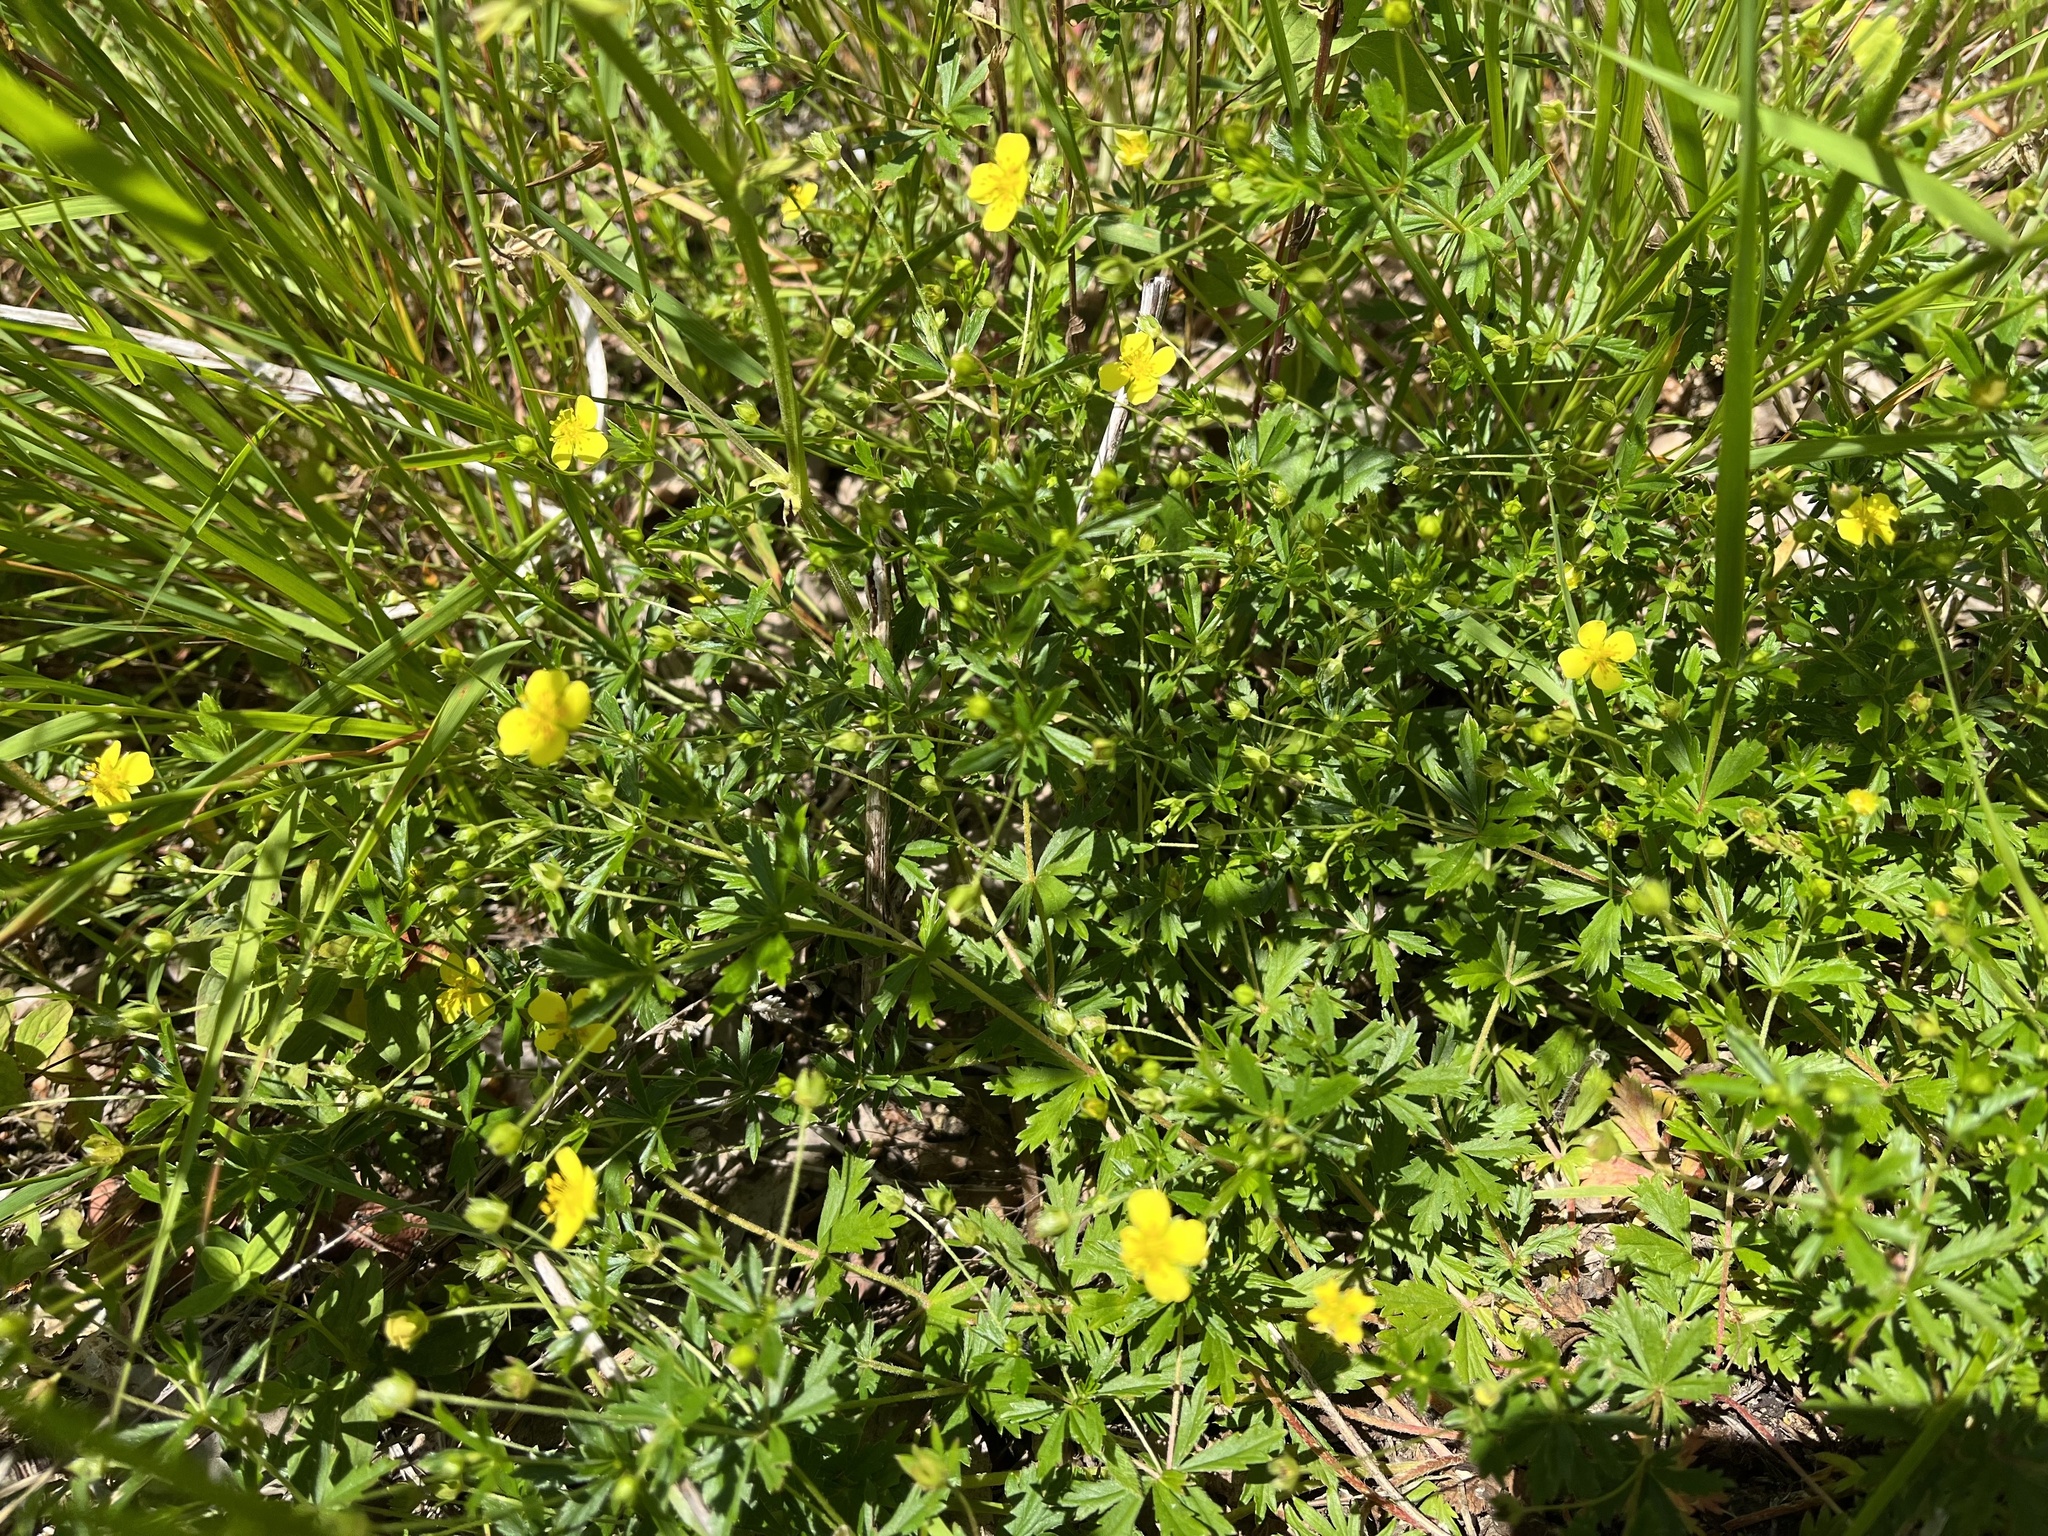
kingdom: Plantae
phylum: Tracheophyta
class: Magnoliopsida
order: Rosales
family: Rosaceae
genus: Potentilla
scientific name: Potentilla erecta
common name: Tormentil
